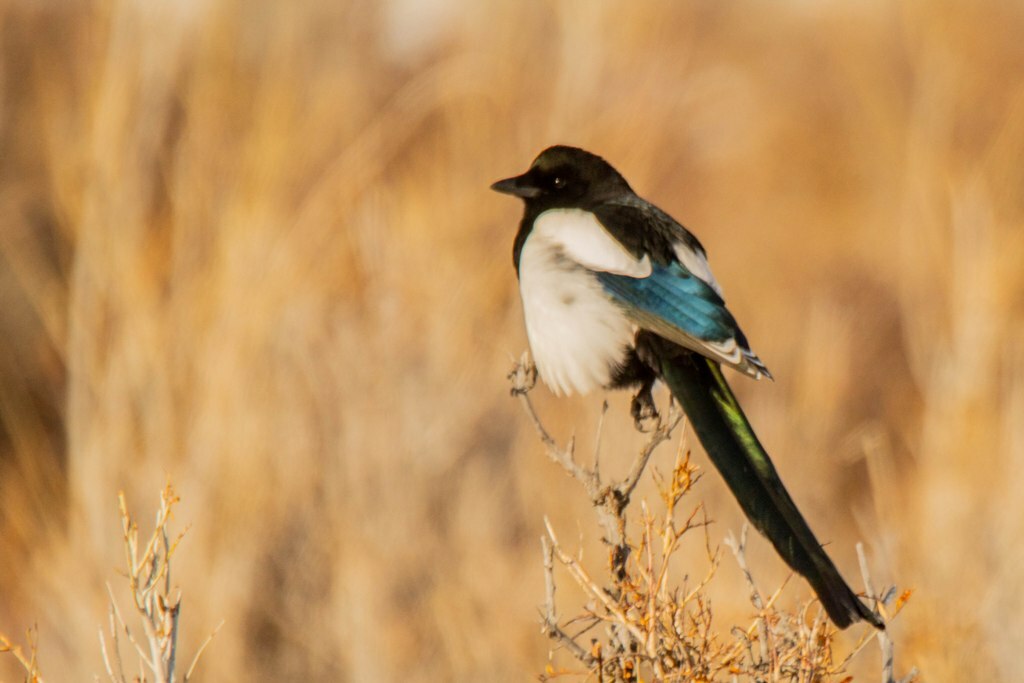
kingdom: Animalia
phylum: Chordata
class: Aves
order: Passeriformes
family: Corvidae
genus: Pica
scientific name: Pica pica
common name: Eurasian magpie
